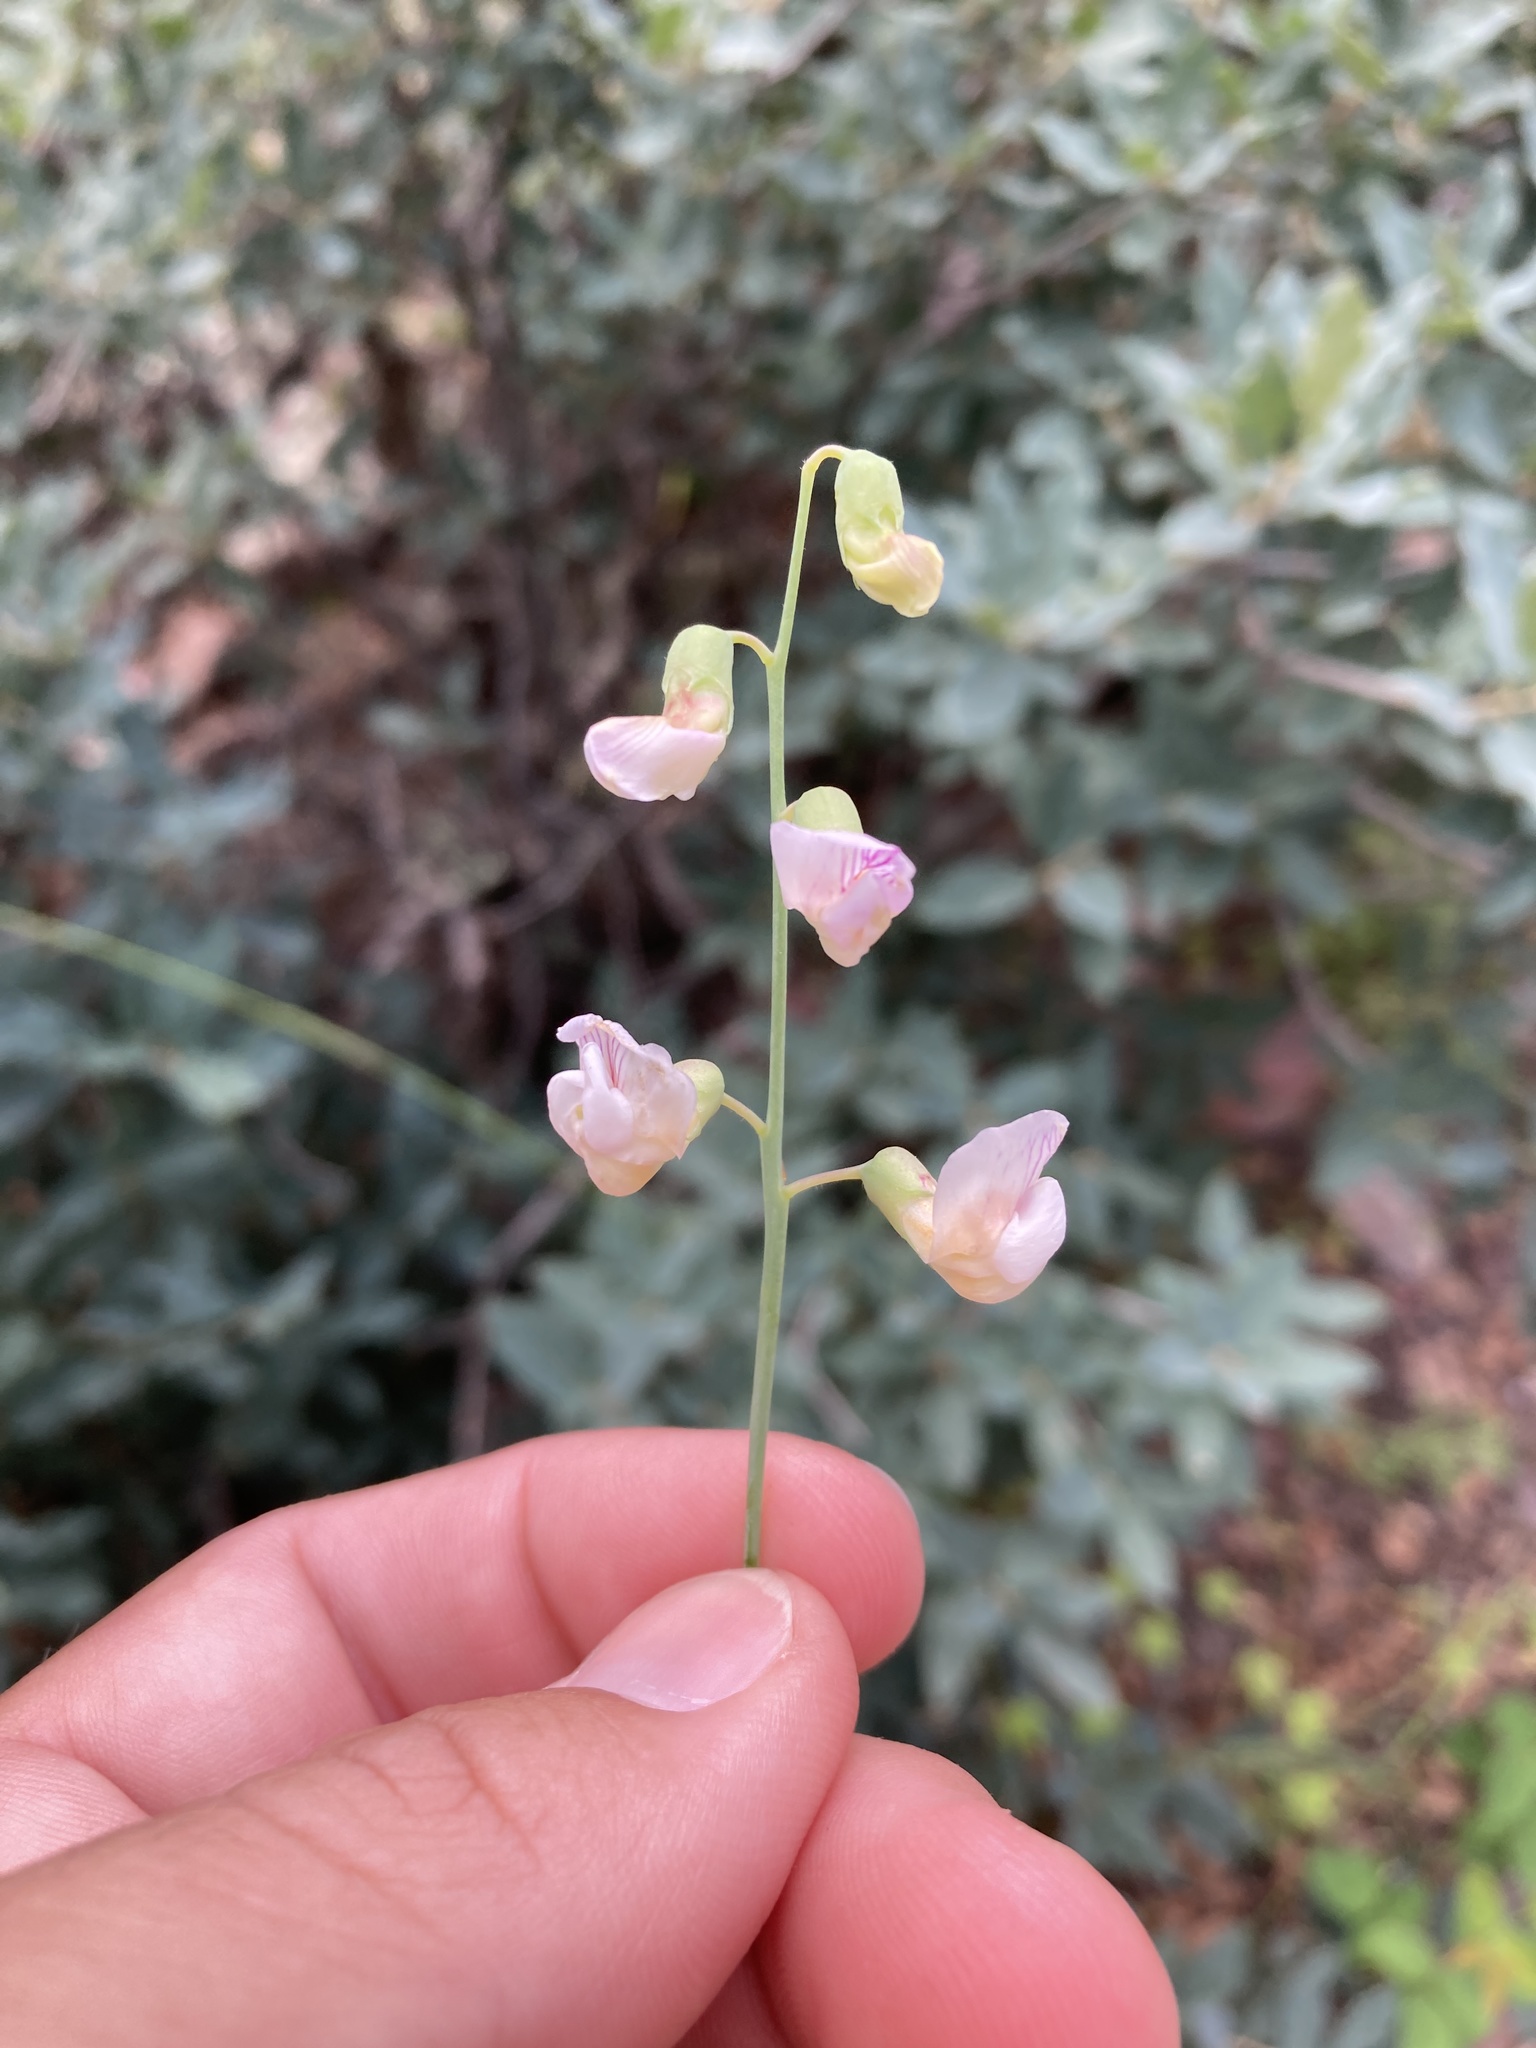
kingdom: Plantae
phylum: Tracheophyta
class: Magnoliopsida
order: Fabales
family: Fabaceae
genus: Lathyrus
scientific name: Lathyrus graminifolius
